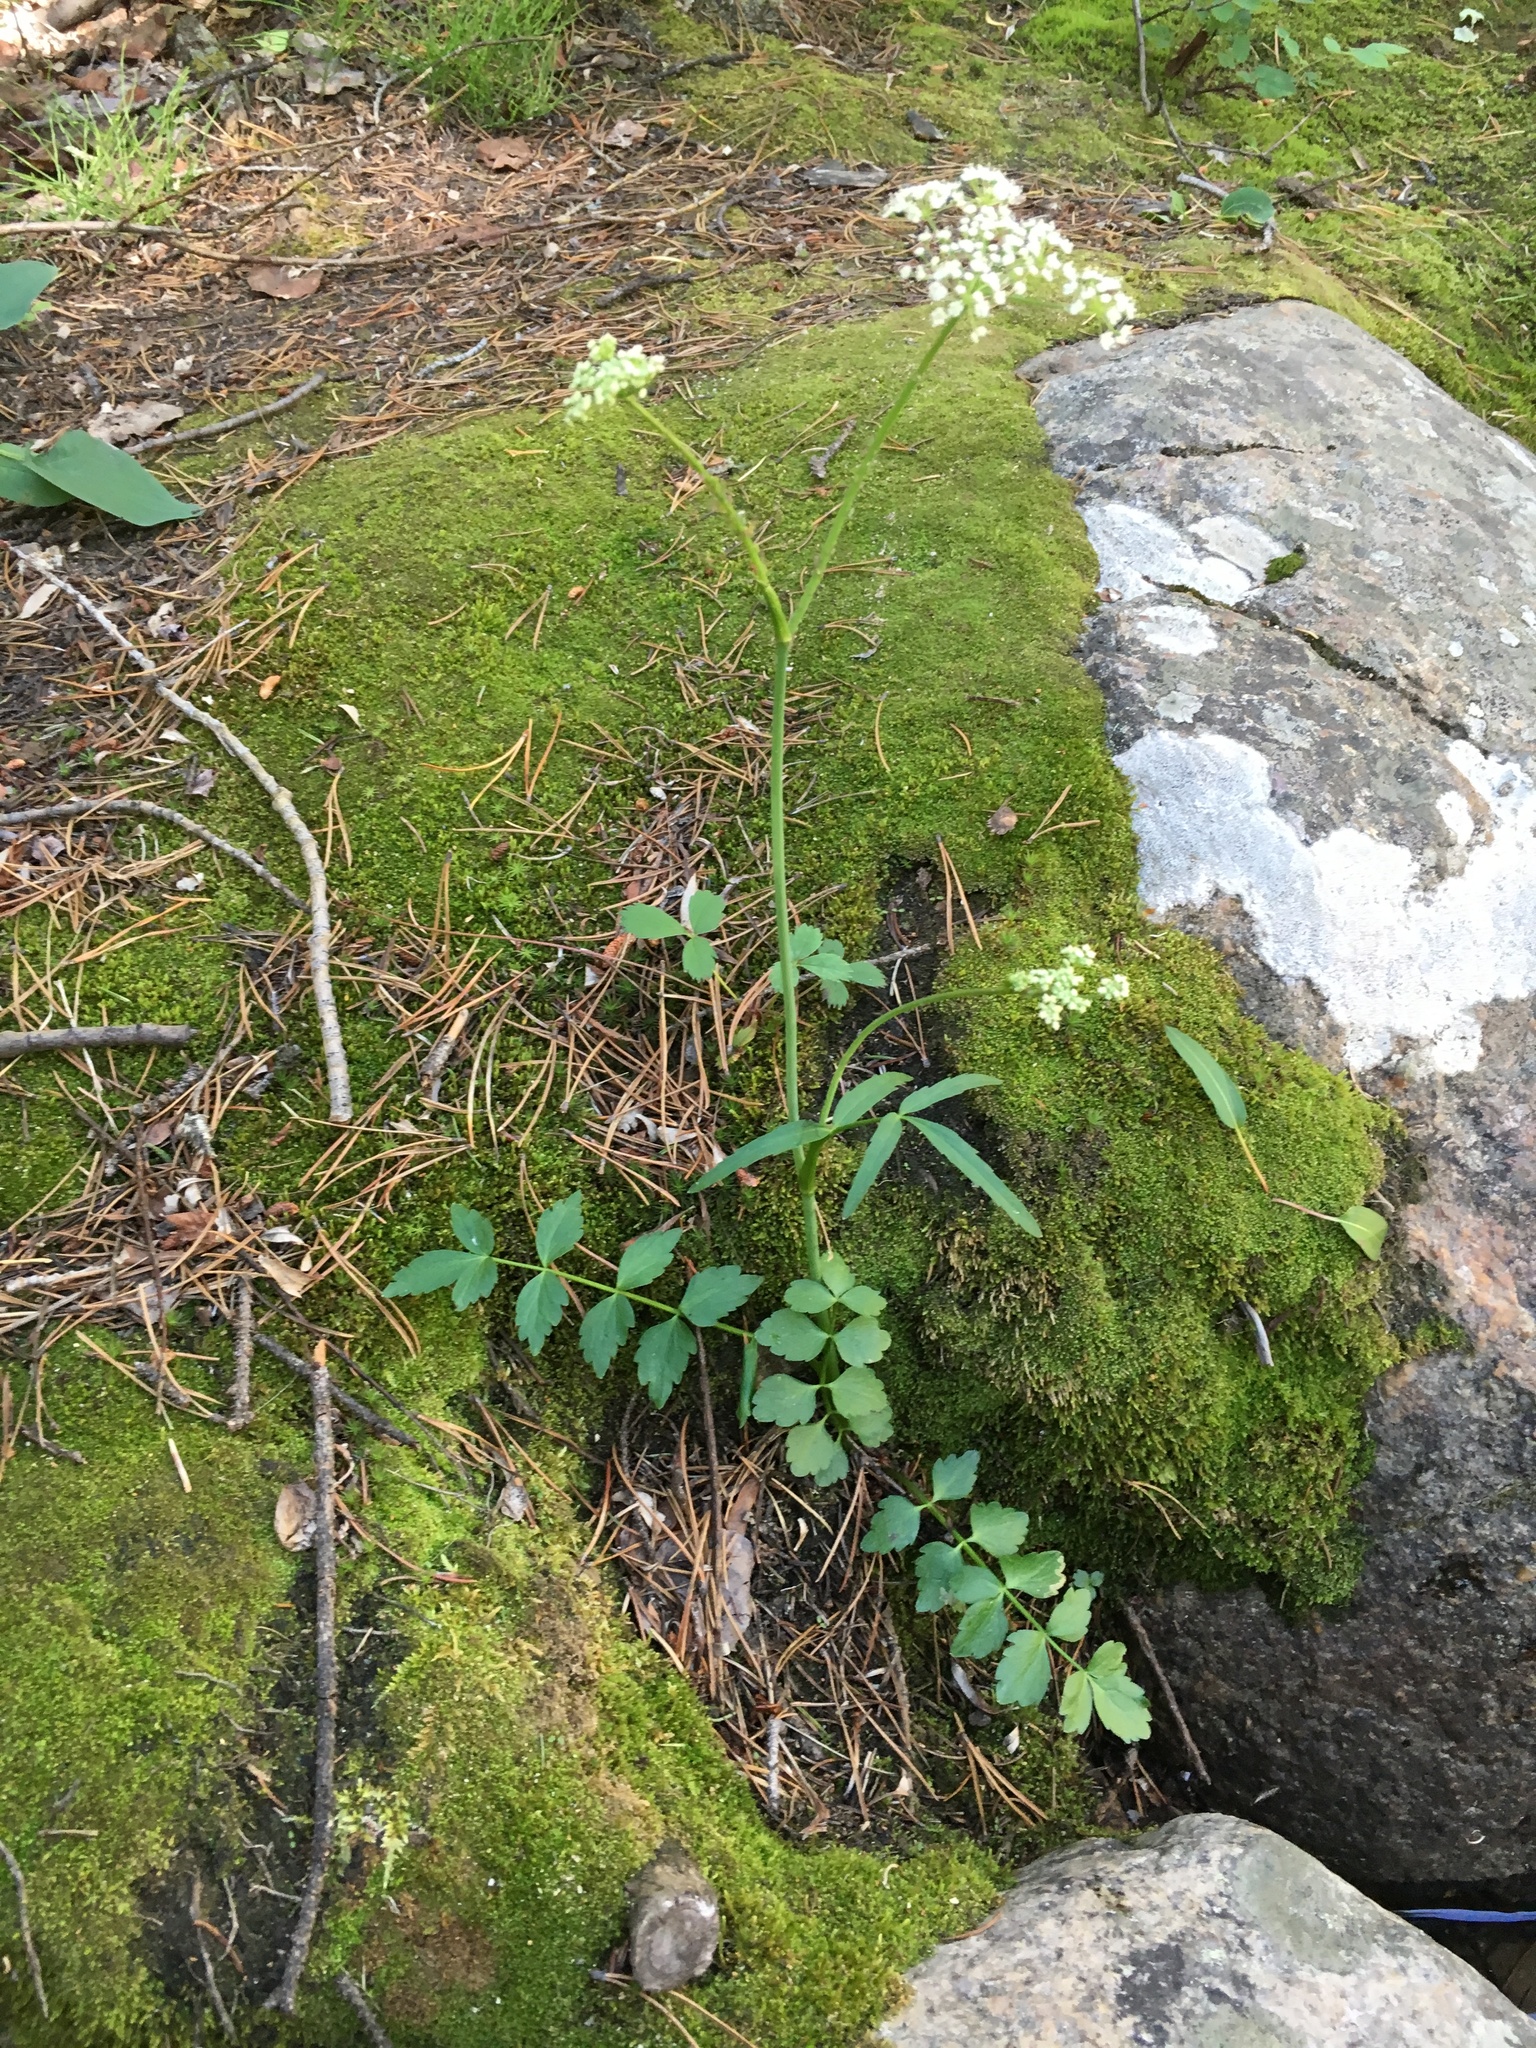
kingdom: Plantae
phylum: Tracheophyta
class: Magnoliopsida
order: Apiales
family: Apiaceae
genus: Oxypolis
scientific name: Oxypolis fendleri
